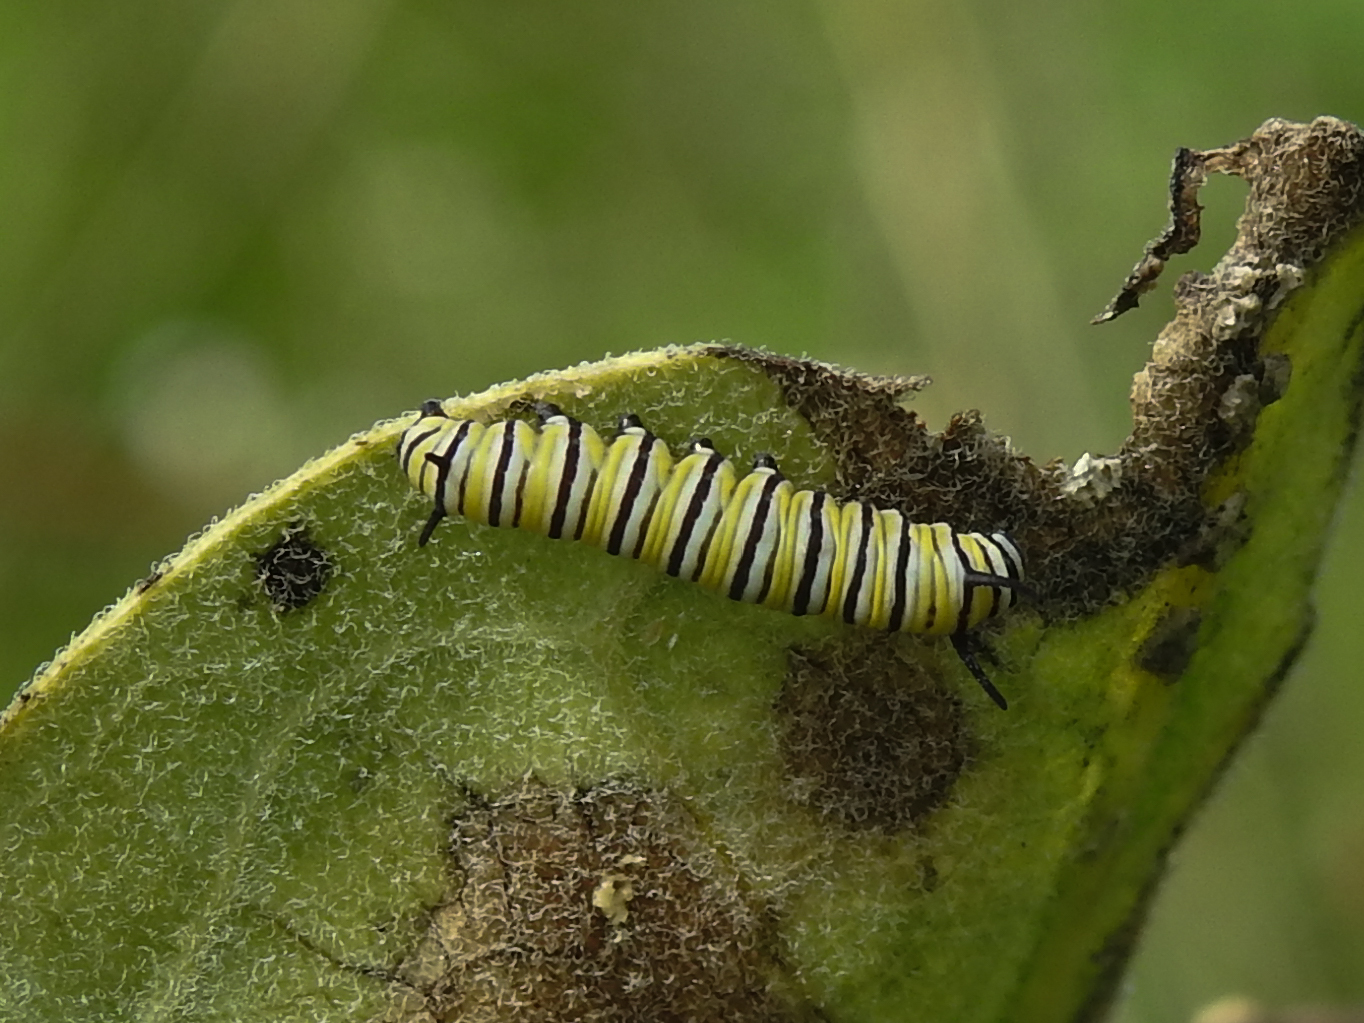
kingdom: Animalia
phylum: Arthropoda
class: Insecta
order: Lepidoptera
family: Nymphalidae
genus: Danaus
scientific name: Danaus plexippus
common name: Monarch
